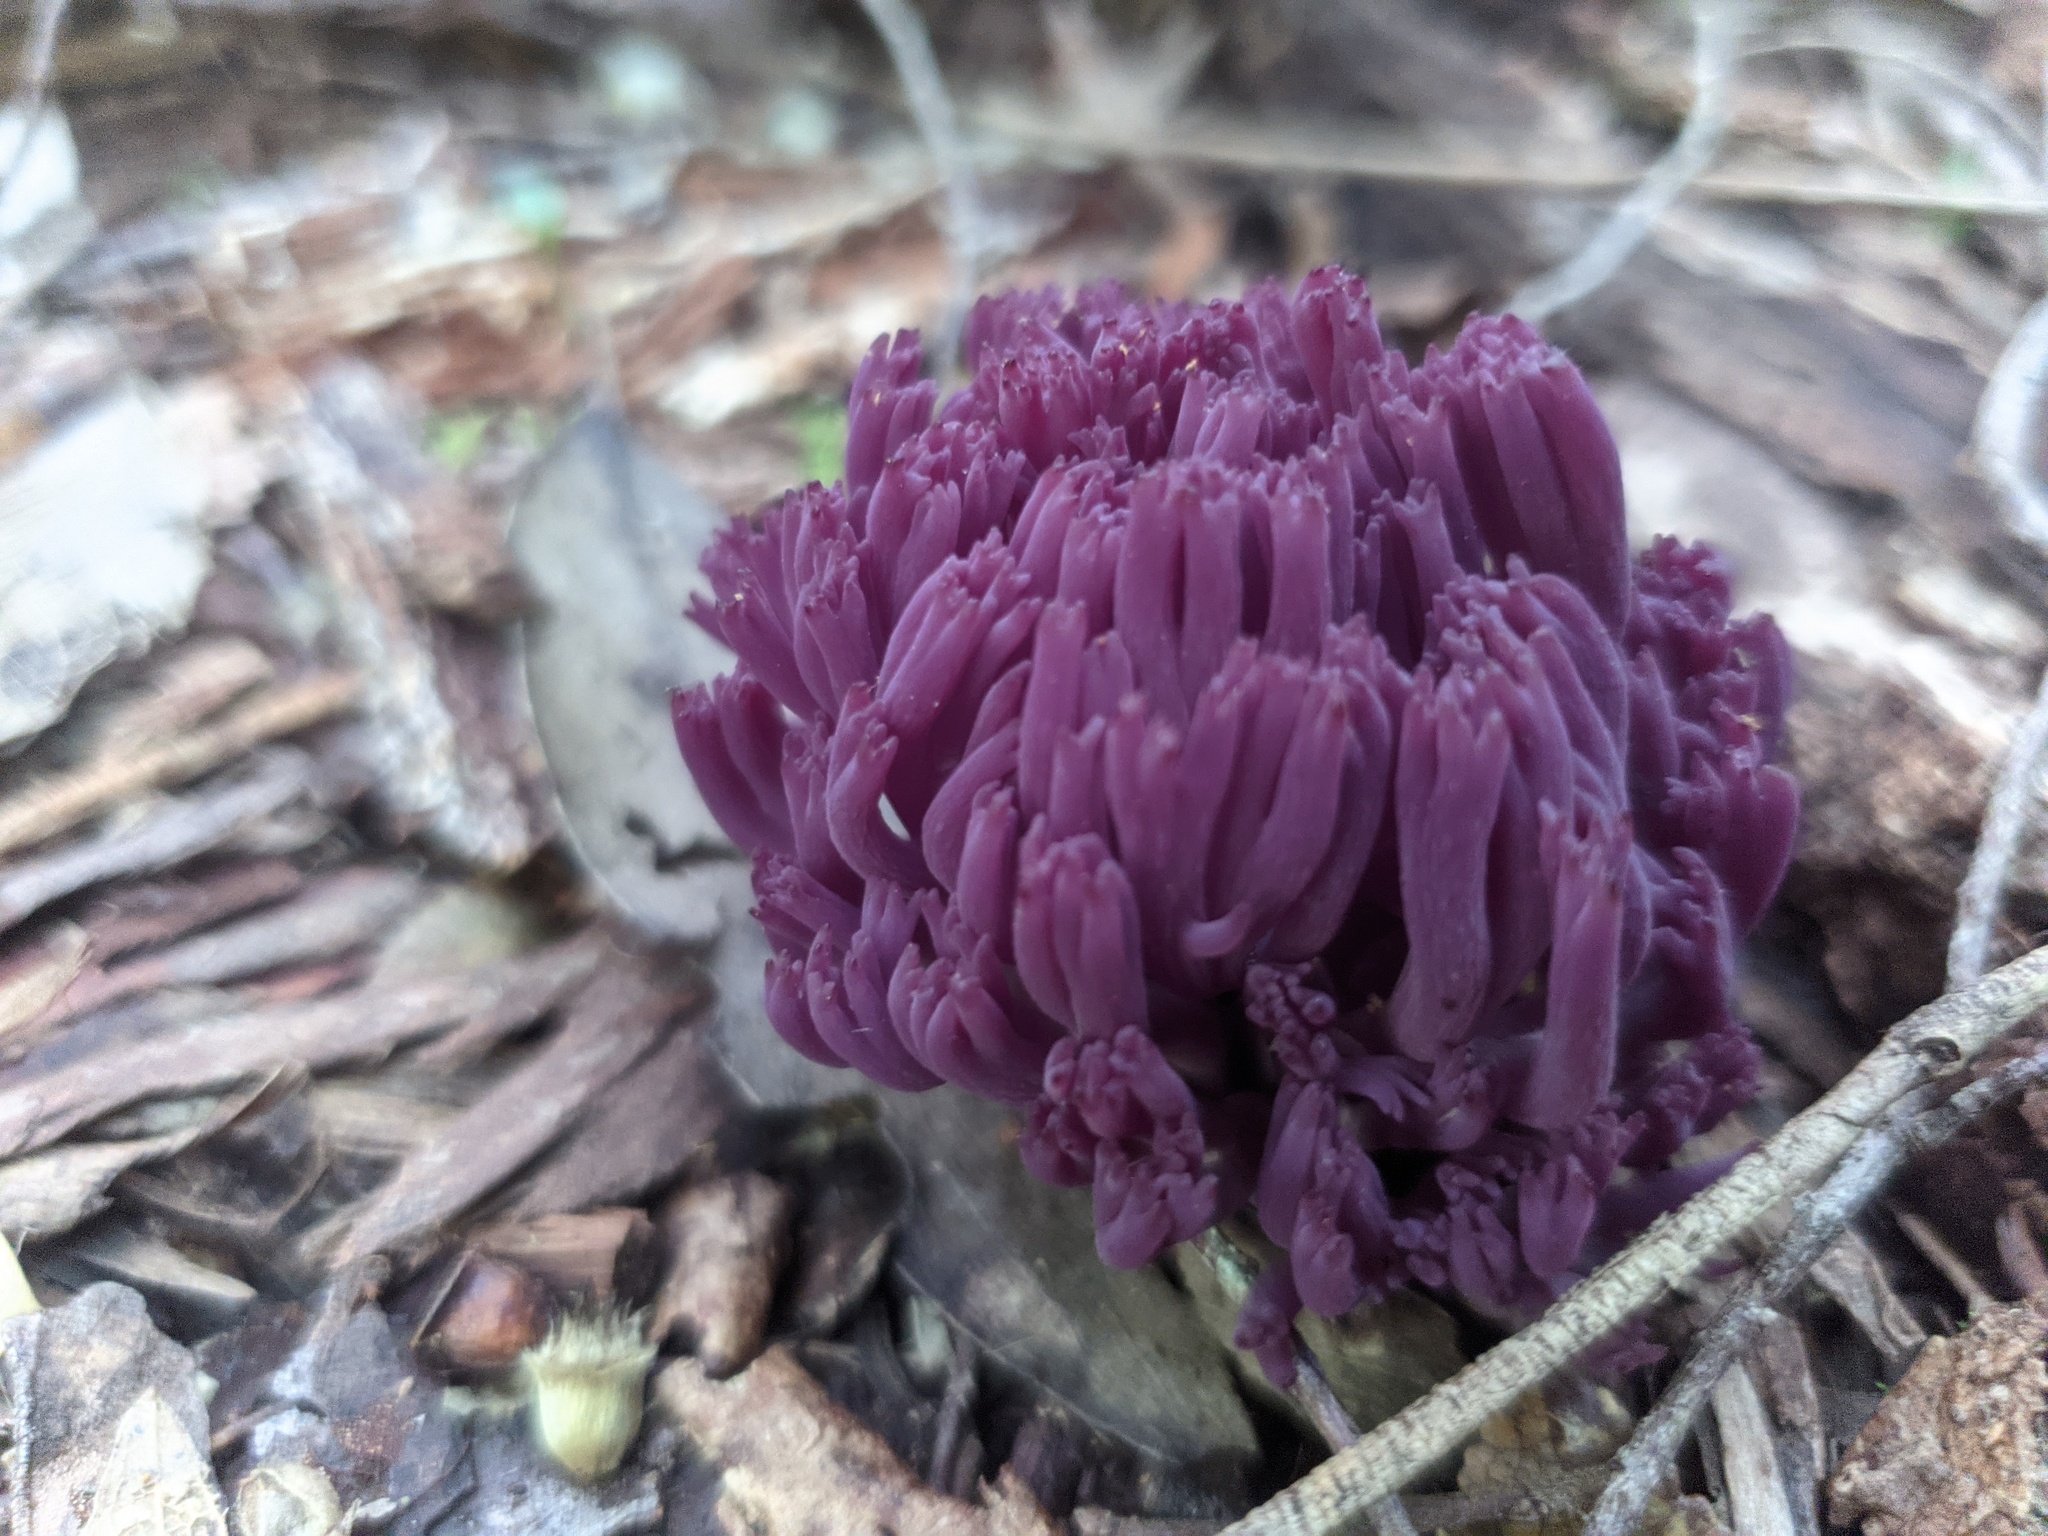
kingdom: Fungi
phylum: Basidiomycota
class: Agaricomycetes
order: Agaricales
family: Clavariaceae
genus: Clavaria
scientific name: Clavaria zollingeri
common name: Violet coral
